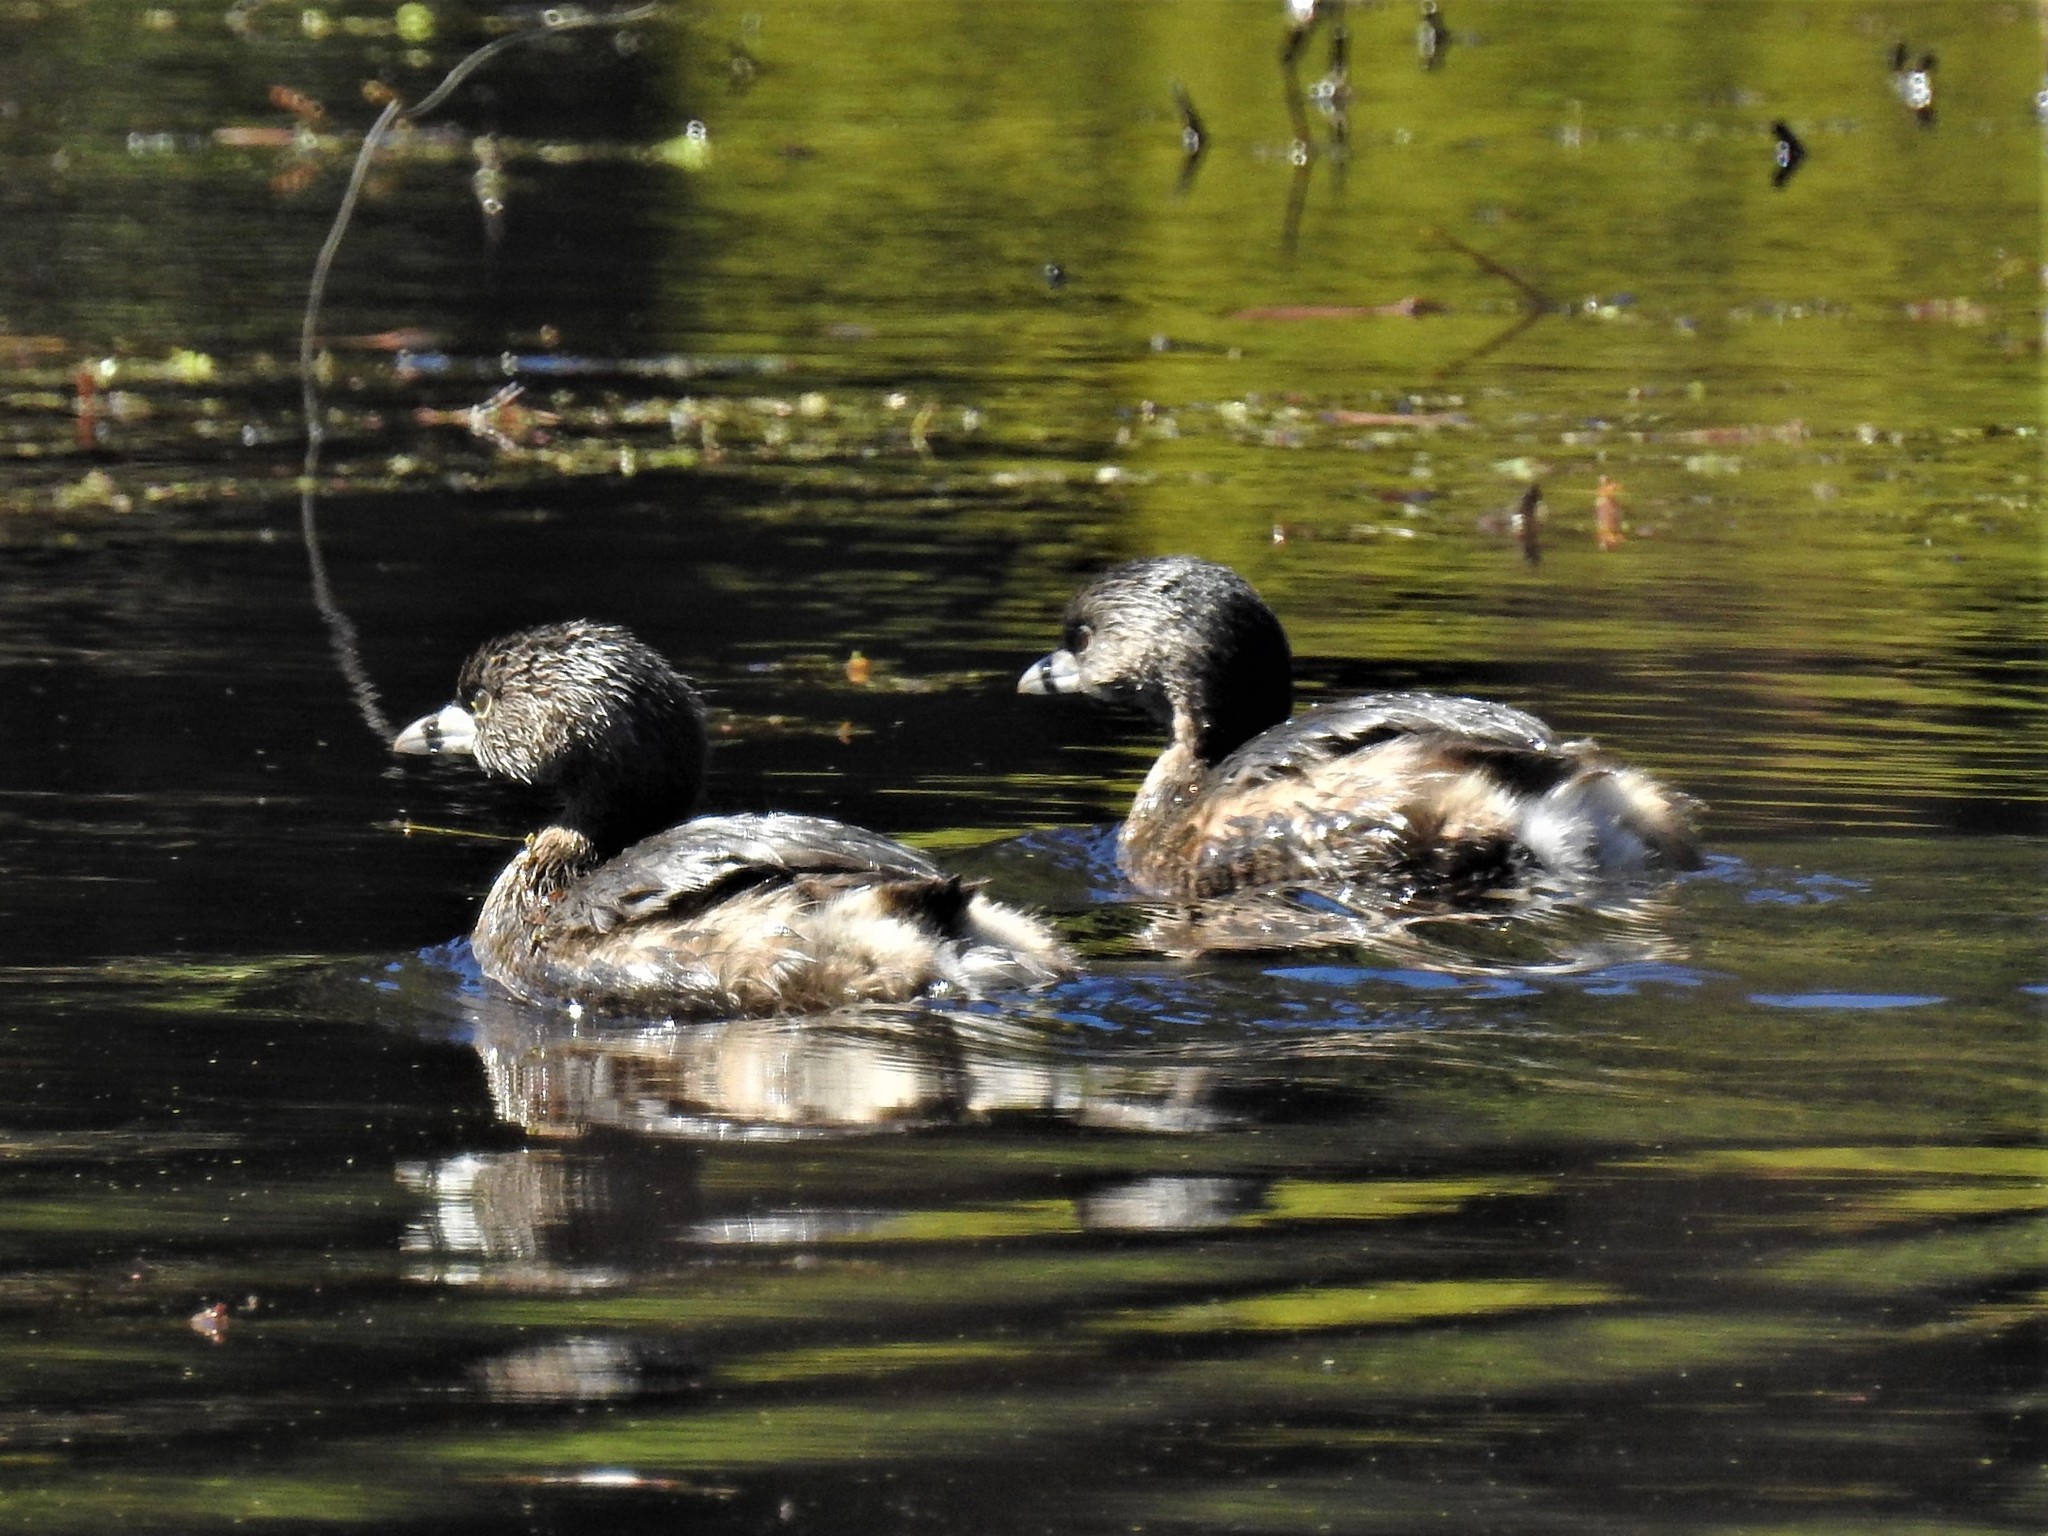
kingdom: Animalia
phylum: Chordata
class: Aves
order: Podicipediformes
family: Podicipedidae
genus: Podilymbus
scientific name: Podilymbus podiceps
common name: Pied-billed grebe
